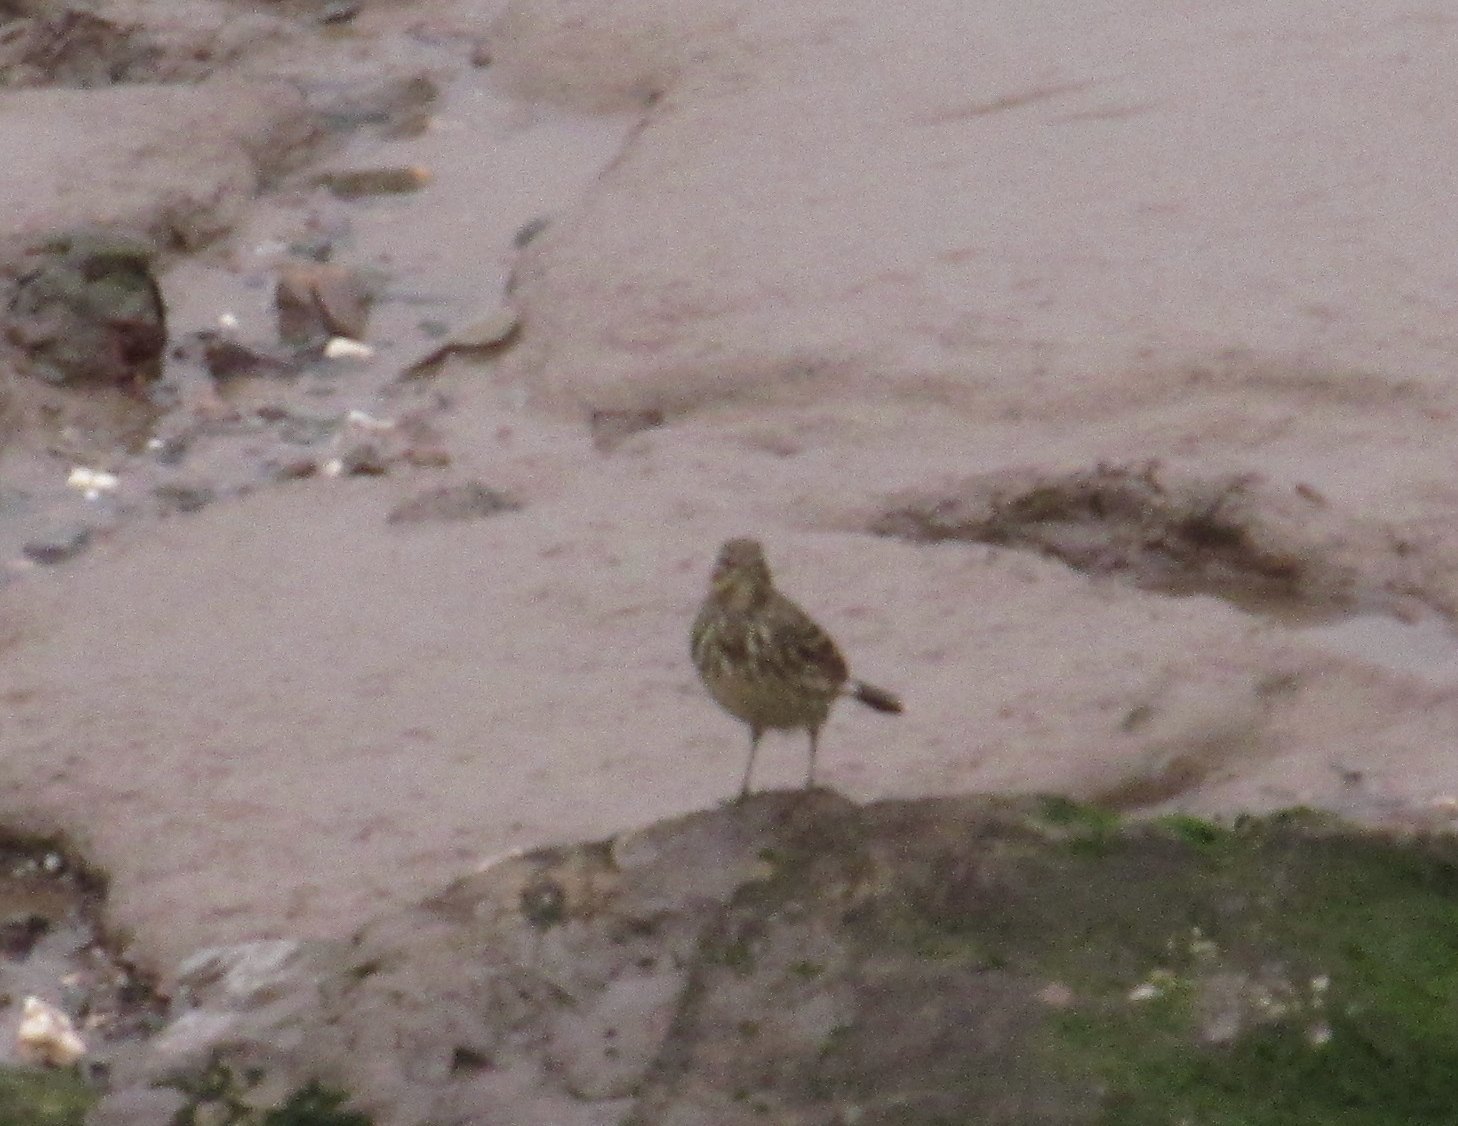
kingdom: Animalia
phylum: Chordata
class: Aves
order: Passeriformes
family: Motacillidae
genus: Anthus
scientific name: Anthus petrosus
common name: Eurasian rock pipit
